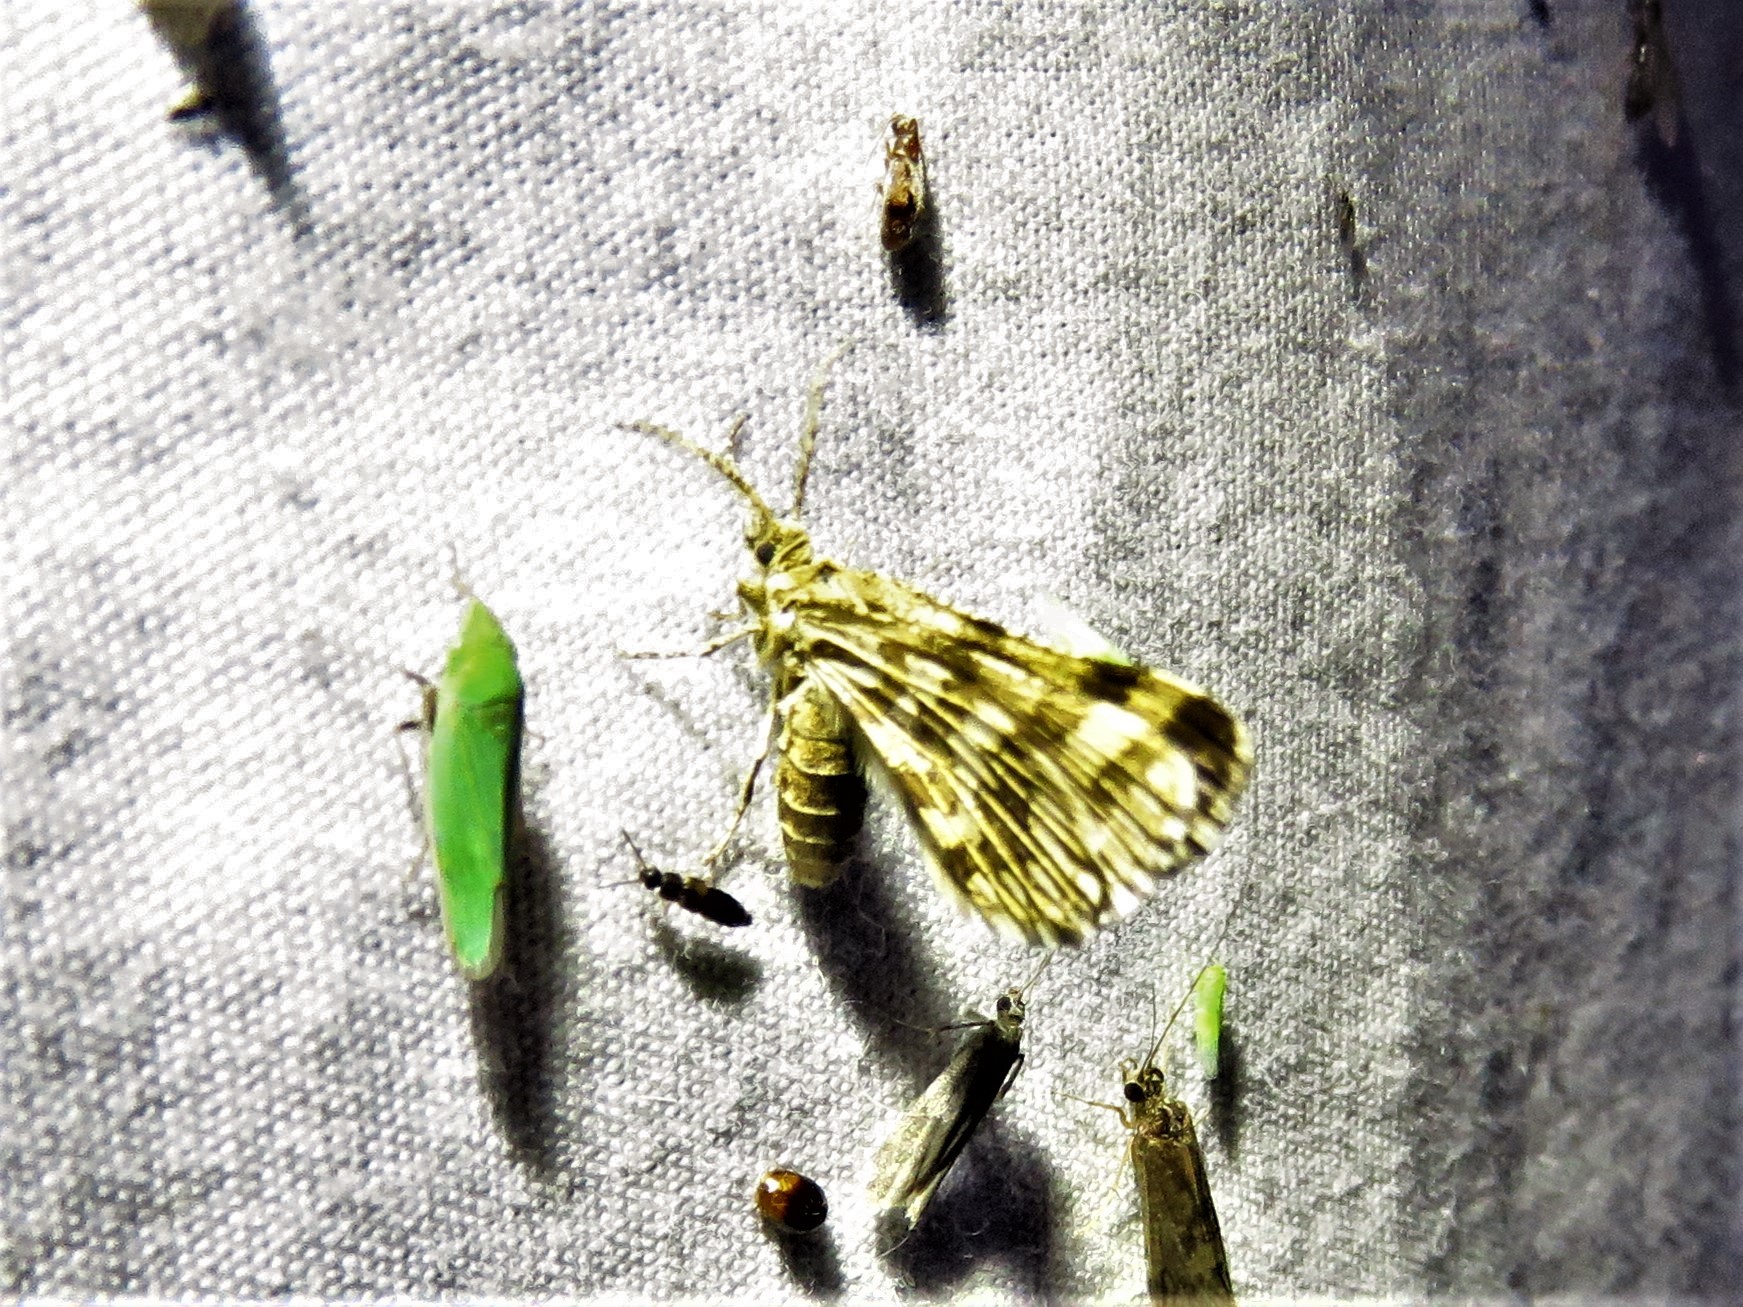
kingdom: Animalia
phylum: Arthropoda
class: Insecta
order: Lepidoptera
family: Geometridae
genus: Narraga
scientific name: Narraga fimetaria
